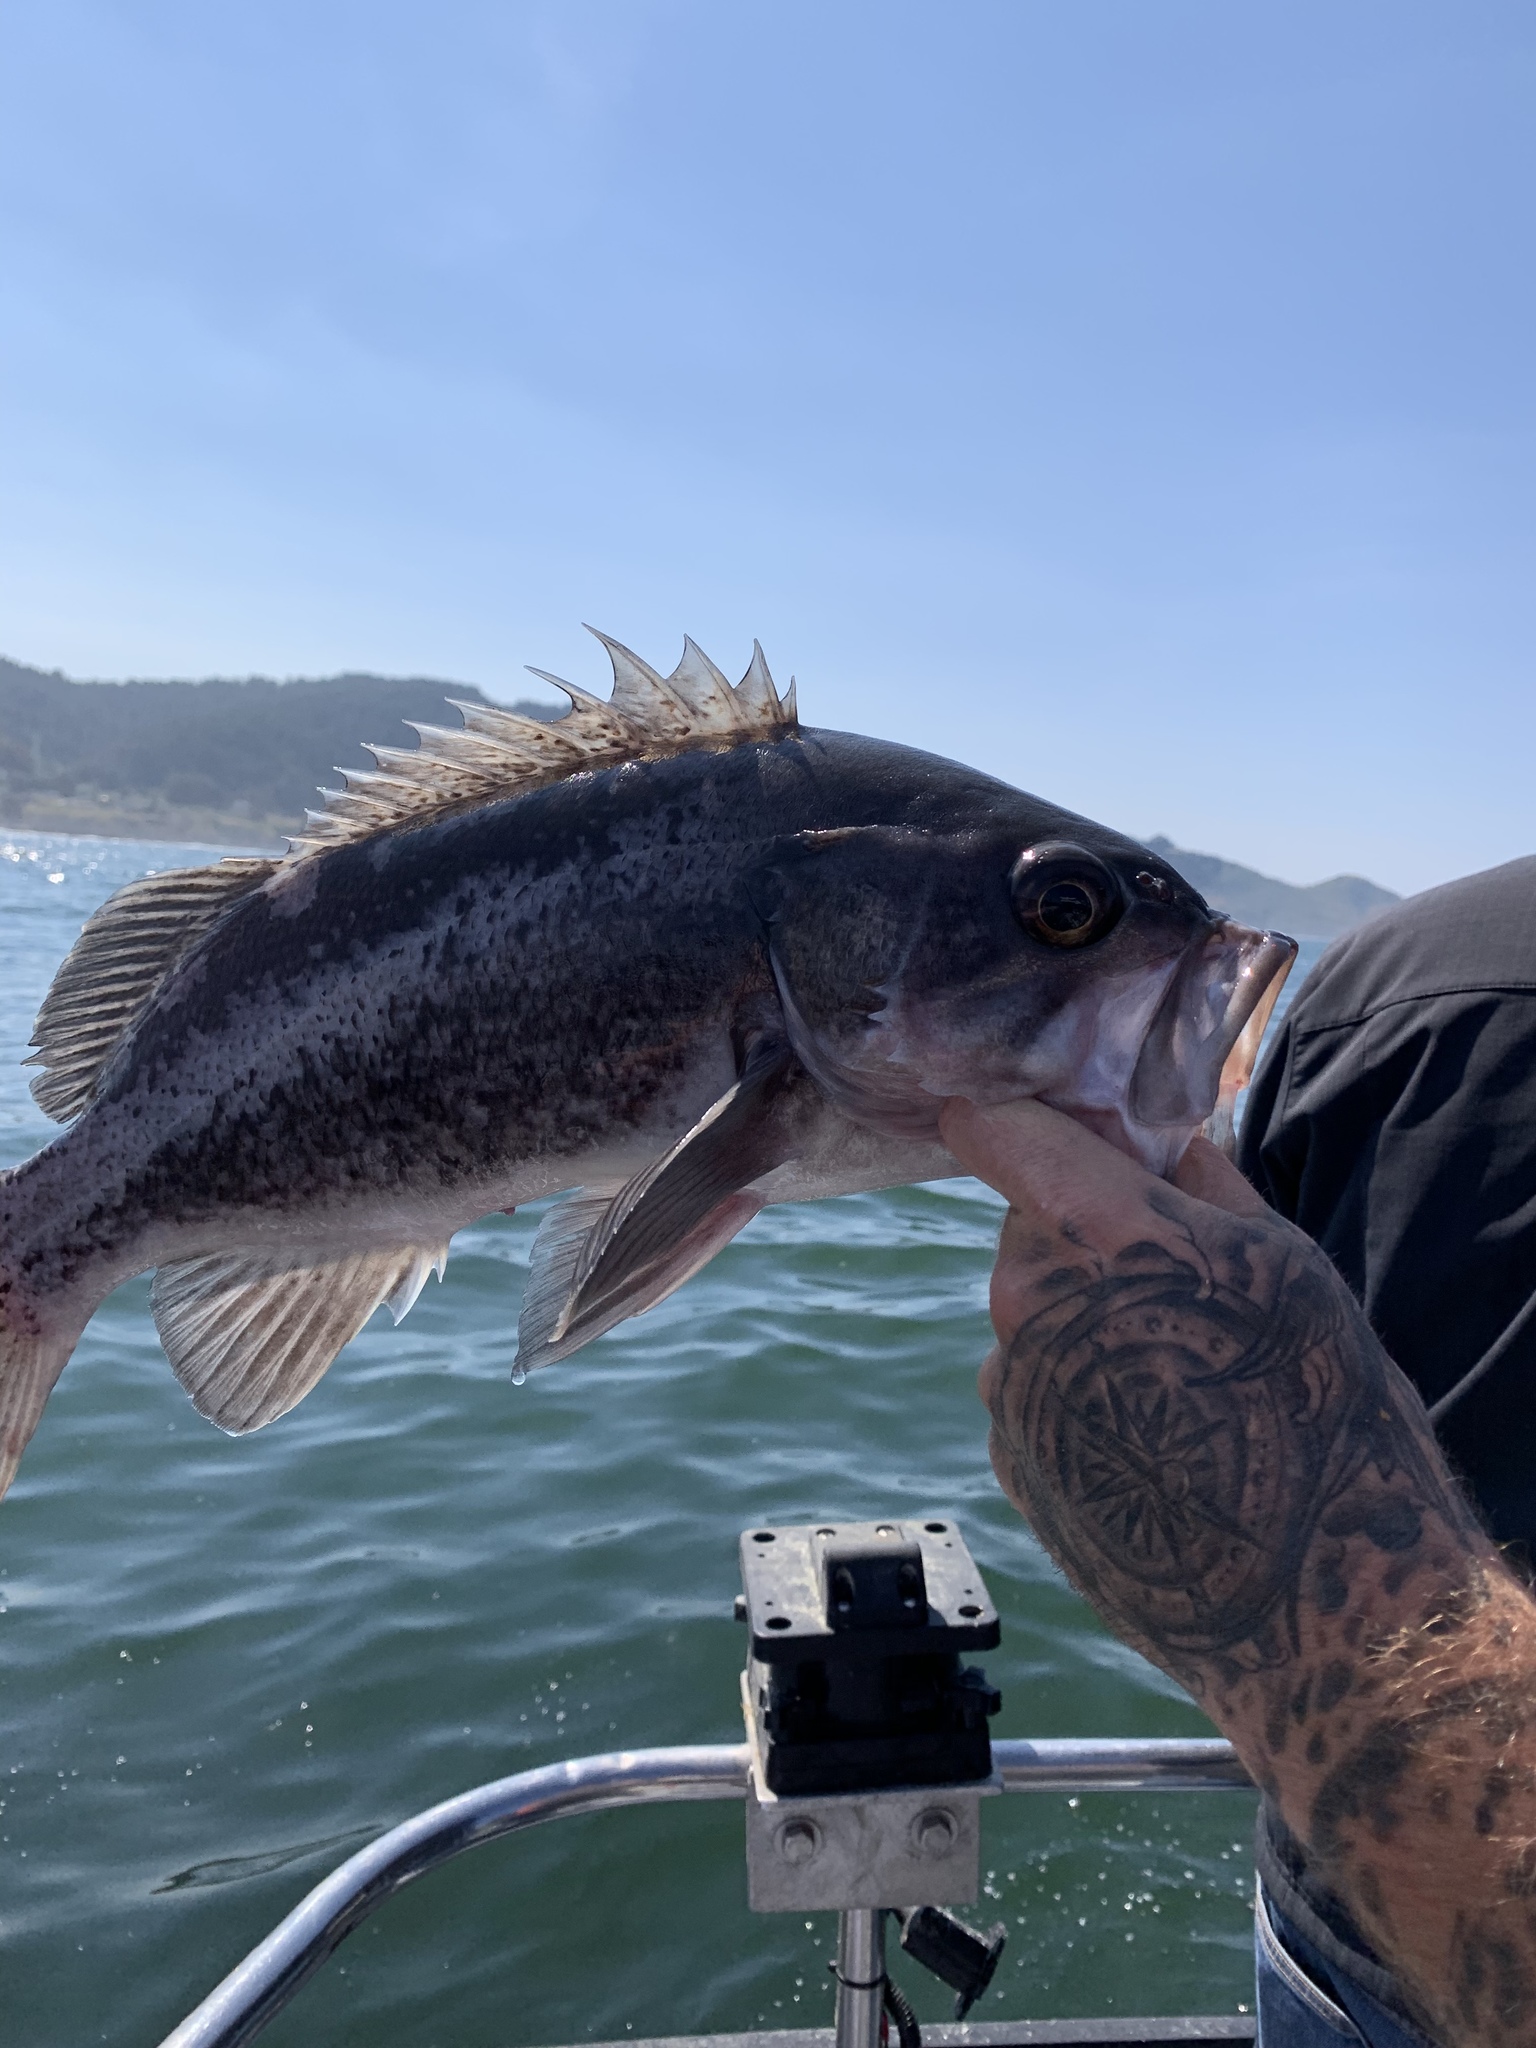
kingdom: Animalia
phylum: Chordata
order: Scorpaeniformes
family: Sebastidae
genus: Sebastes
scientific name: Sebastes melanops
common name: Black rockfish
